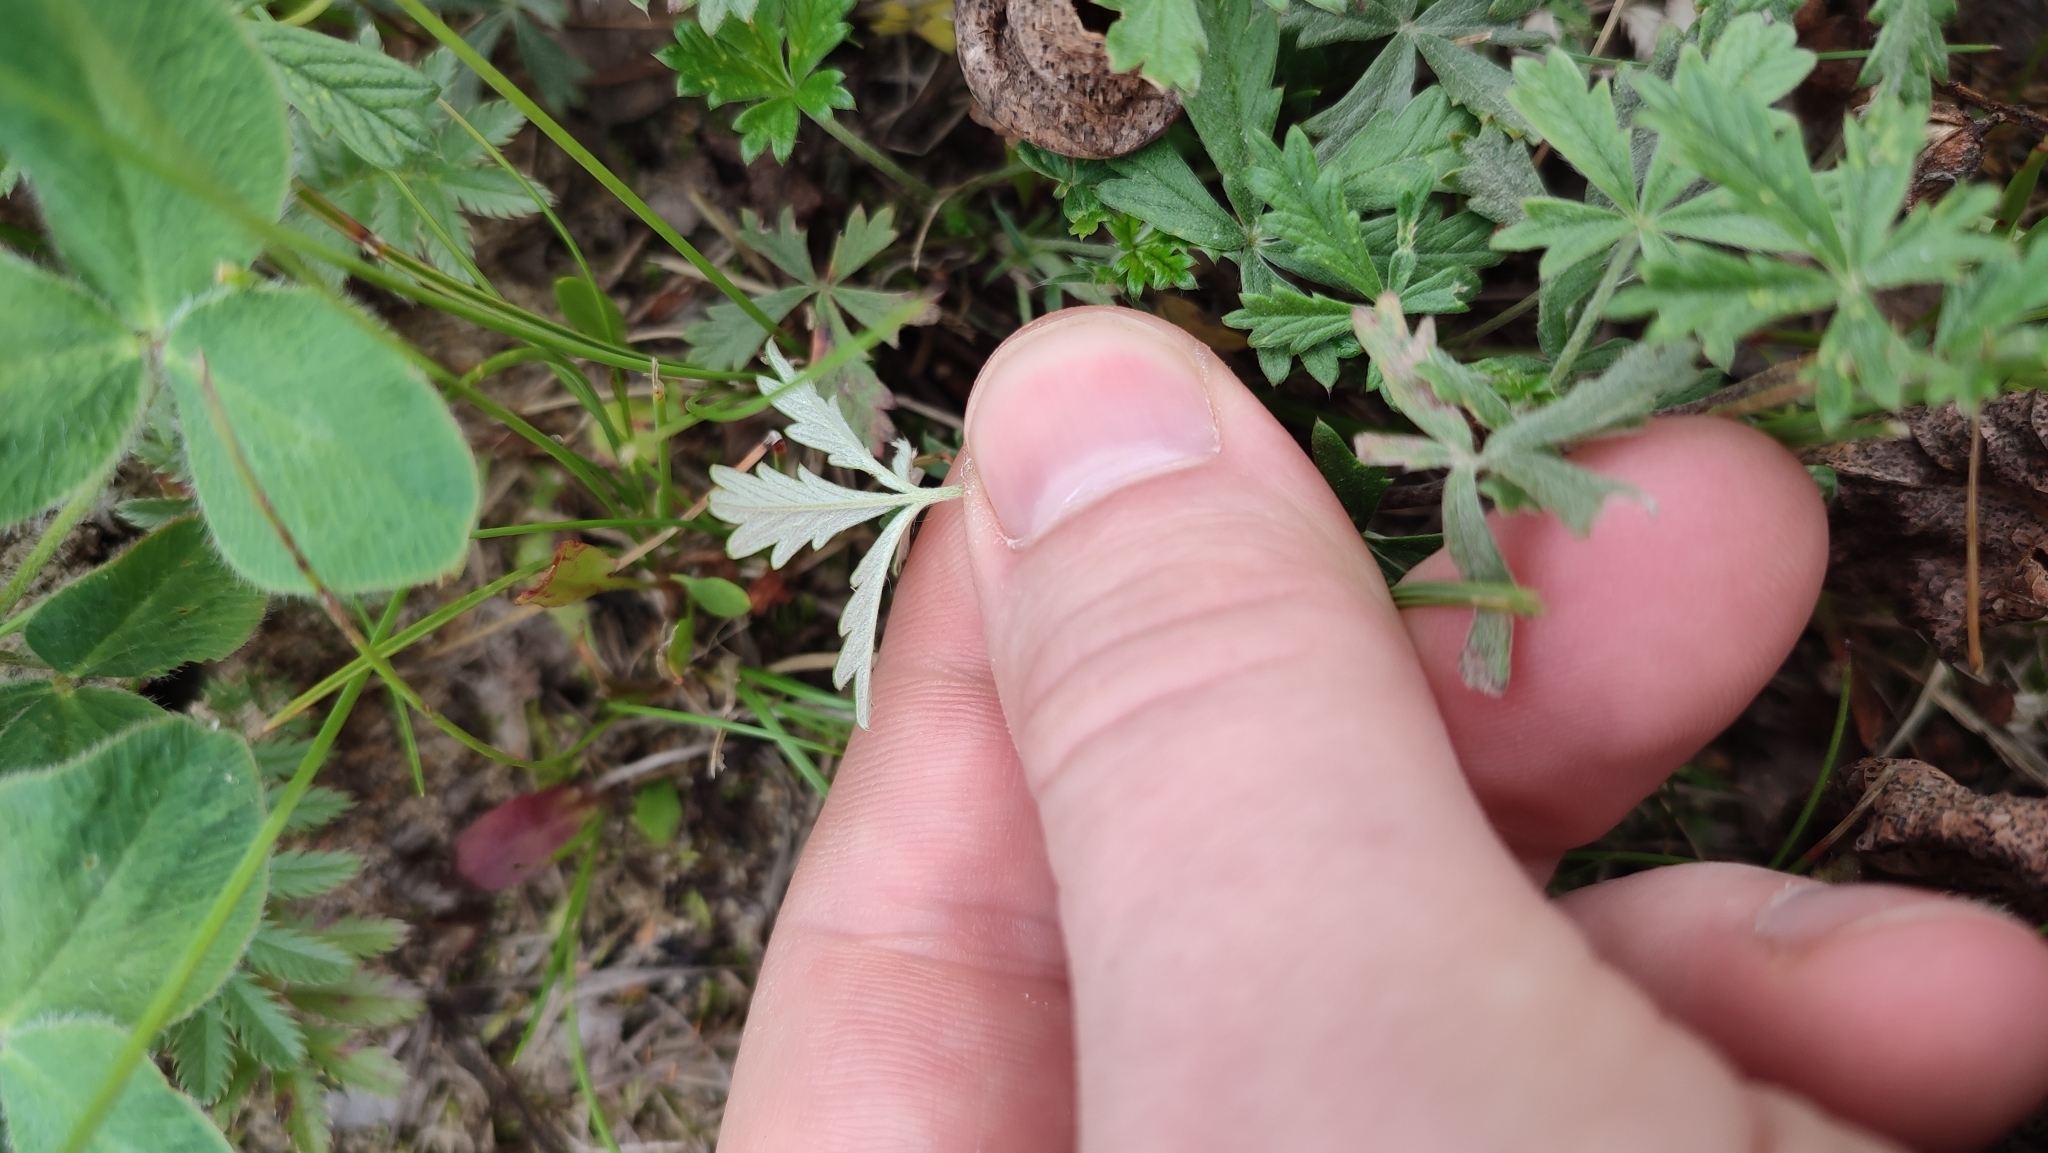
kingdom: Plantae
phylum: Tracheophyta
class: Magnoliopsida
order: Rosales
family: Rosaceae
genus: Potentilla
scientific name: Potentilla argentea
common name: Hoary cinquefoil
